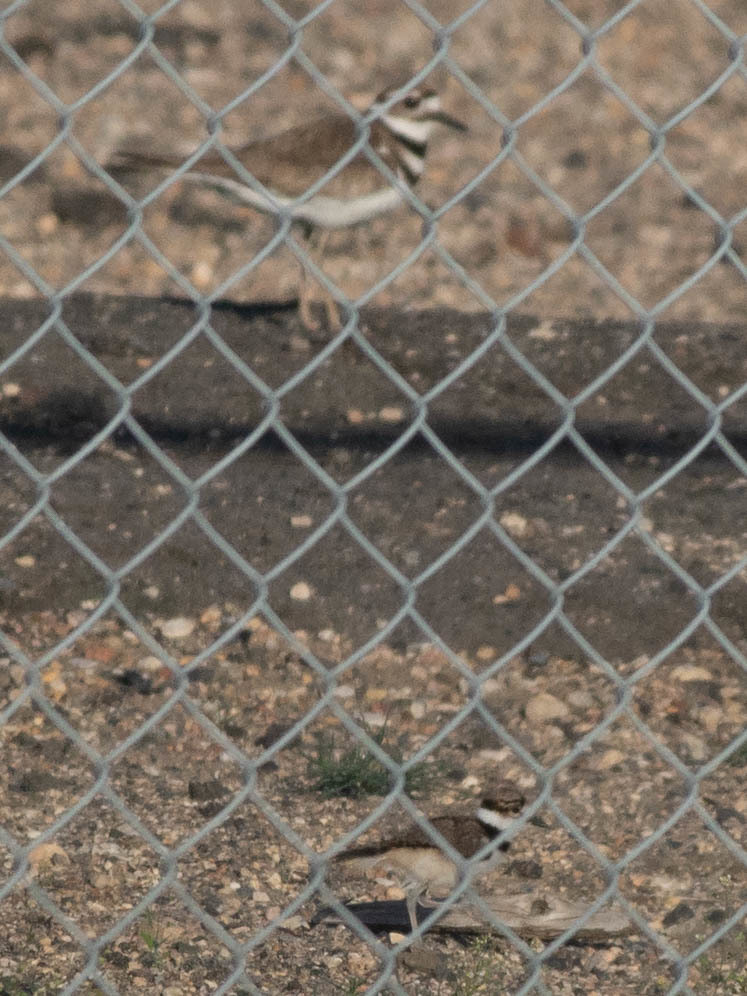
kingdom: Animalia
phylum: Chordata
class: Aves
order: Charadriiformes
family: Charadriidae
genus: Charadrius
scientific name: Charadrius vociferus
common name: Killdeer
